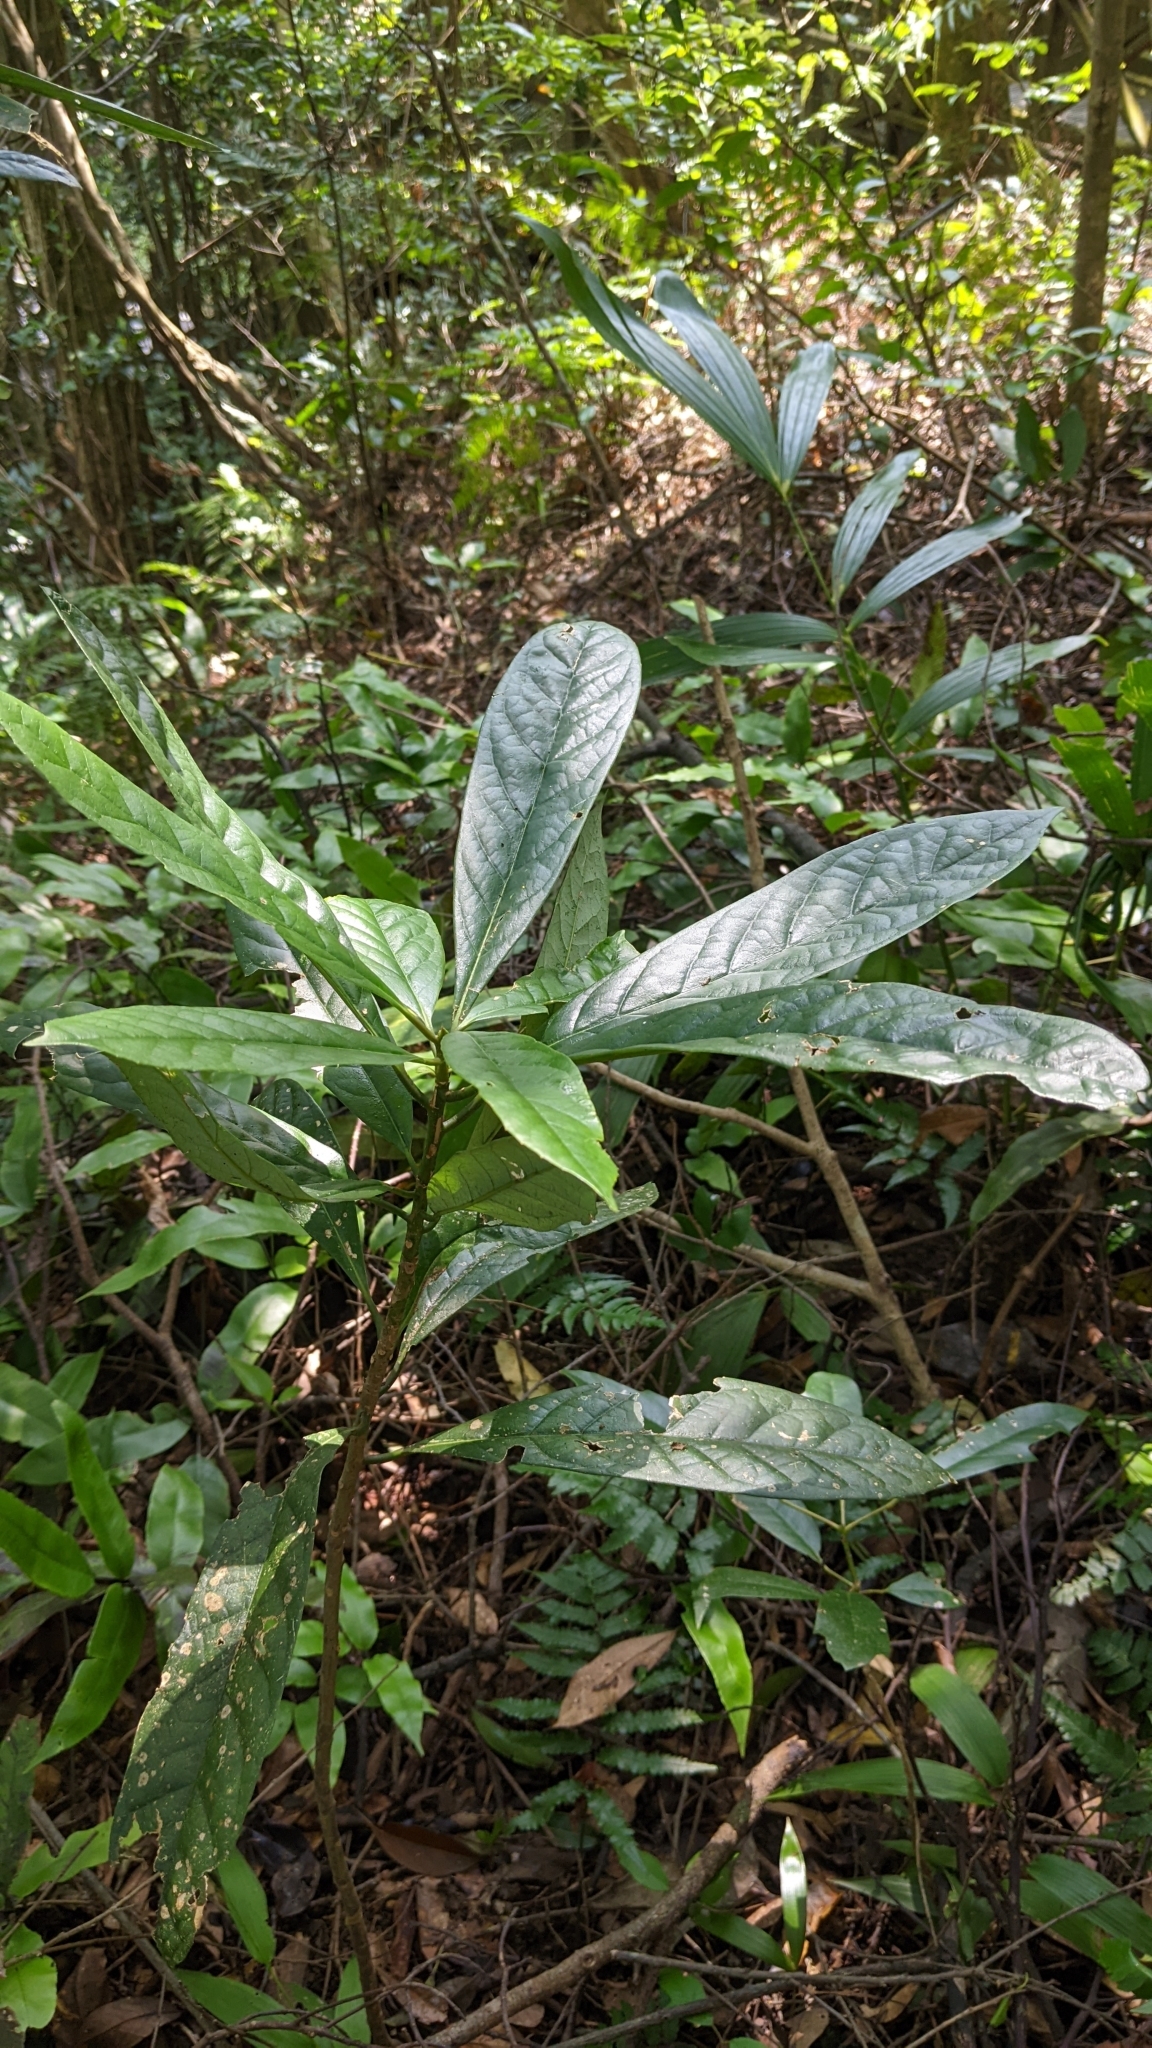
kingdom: Plantae
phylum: Tracheophyta
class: Magnoliopsida
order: Ericales
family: Symplocaceae
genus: Symplocos
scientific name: Symplocos glauca
